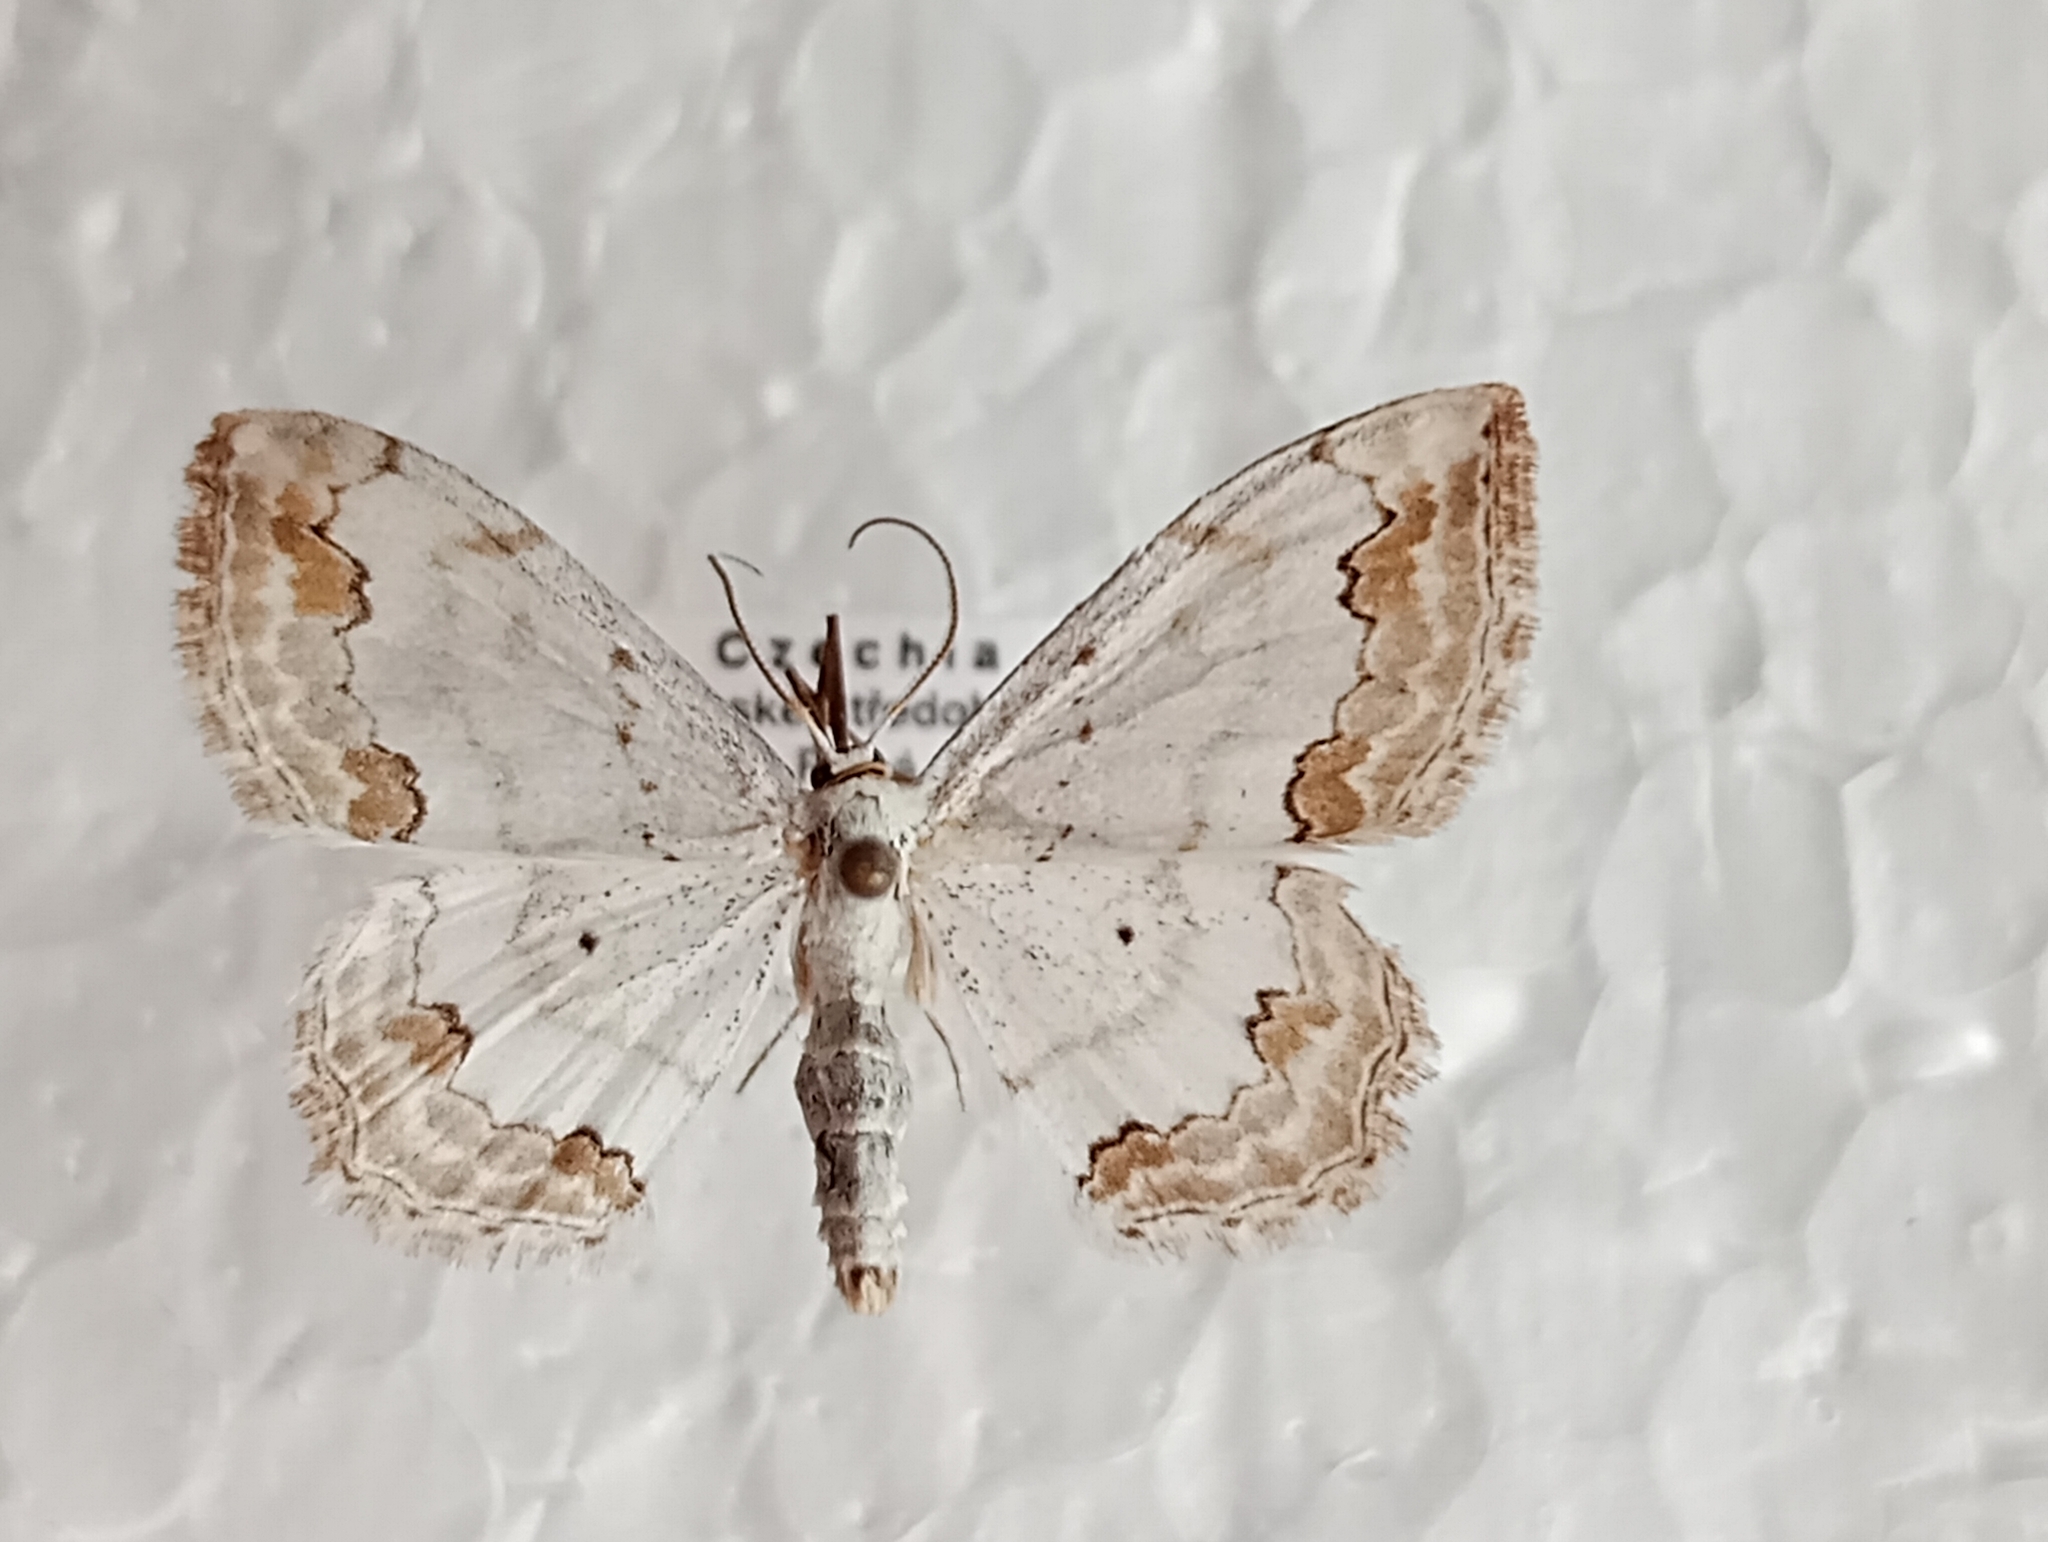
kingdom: Animalia
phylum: Arthropoda
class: Insecta
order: Lepidoptera
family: Geometridae
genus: Scopula
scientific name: Scopula ornata
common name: Lace border
